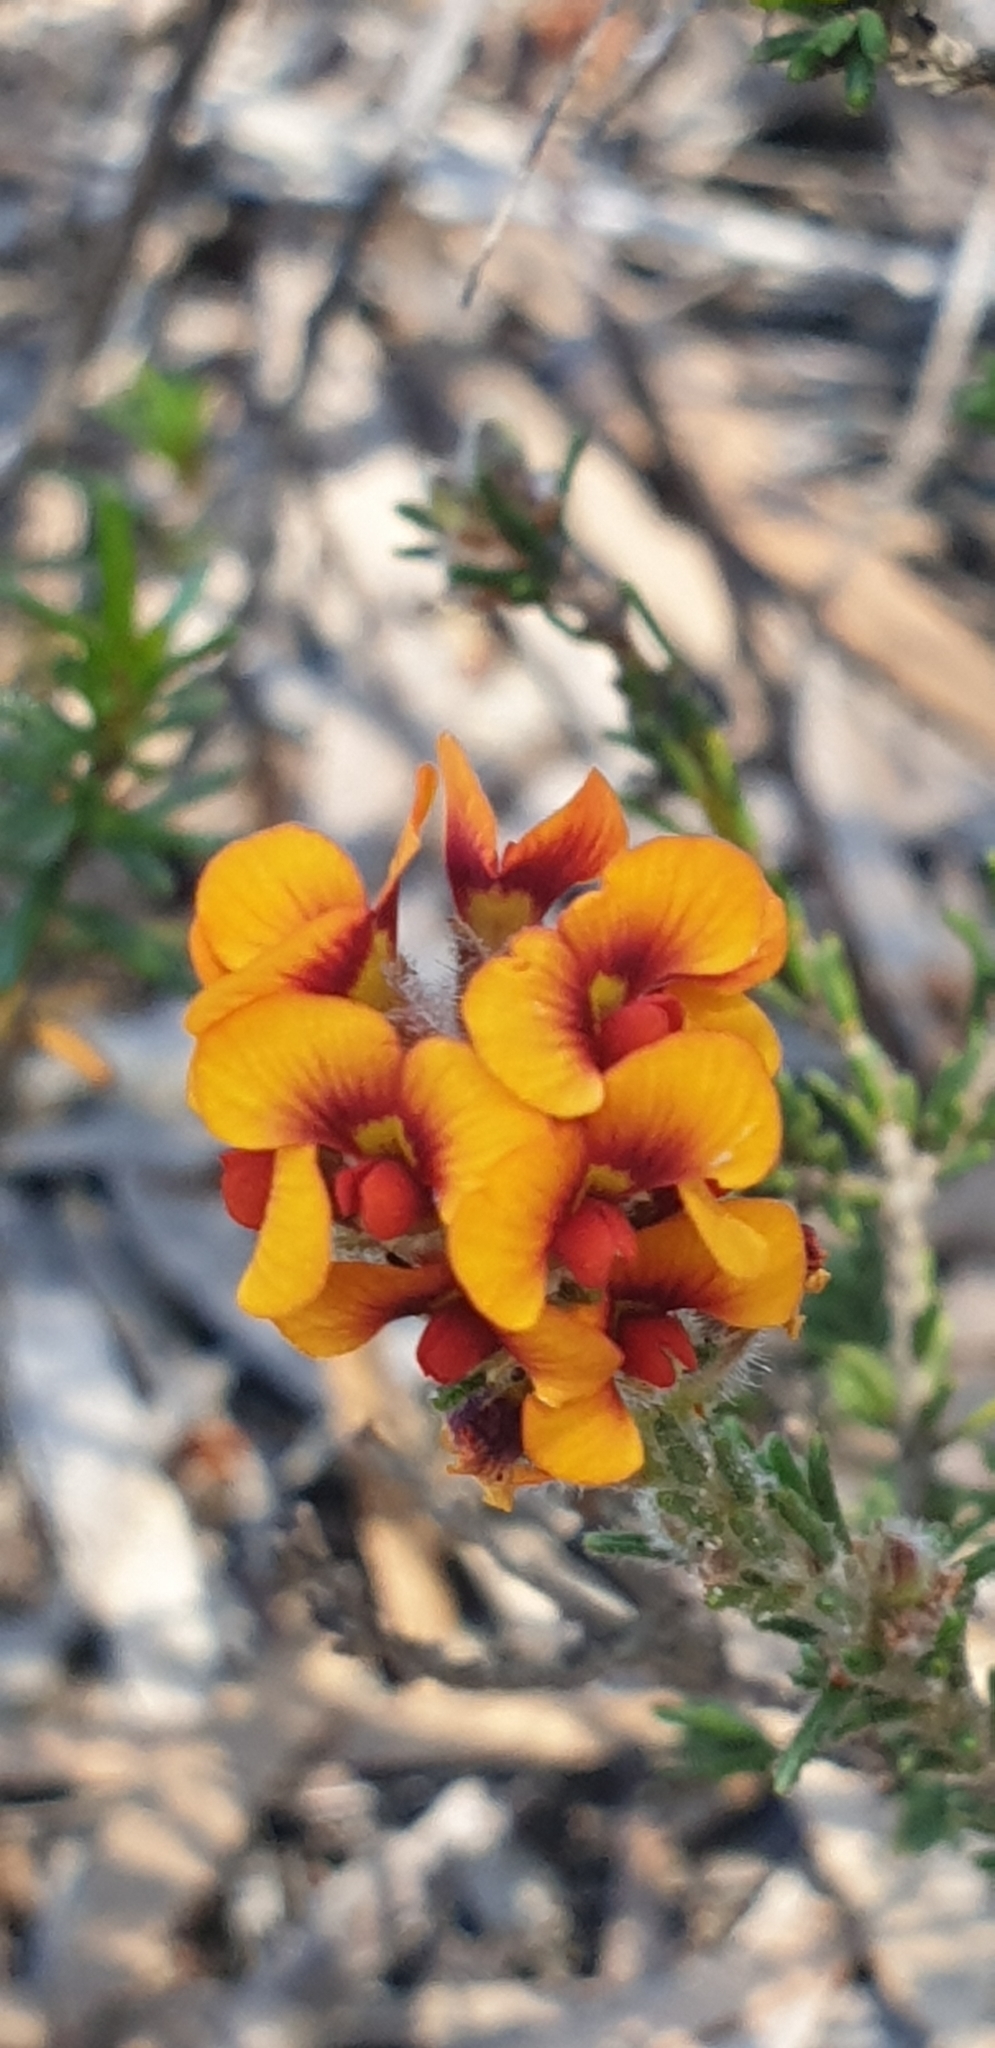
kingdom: Plantae
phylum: Tracheophyta
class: Magnoliopsida
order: Fabales
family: Fabaceae
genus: Dillwynia
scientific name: Dillwynia sericea
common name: Showy parrot-pea
